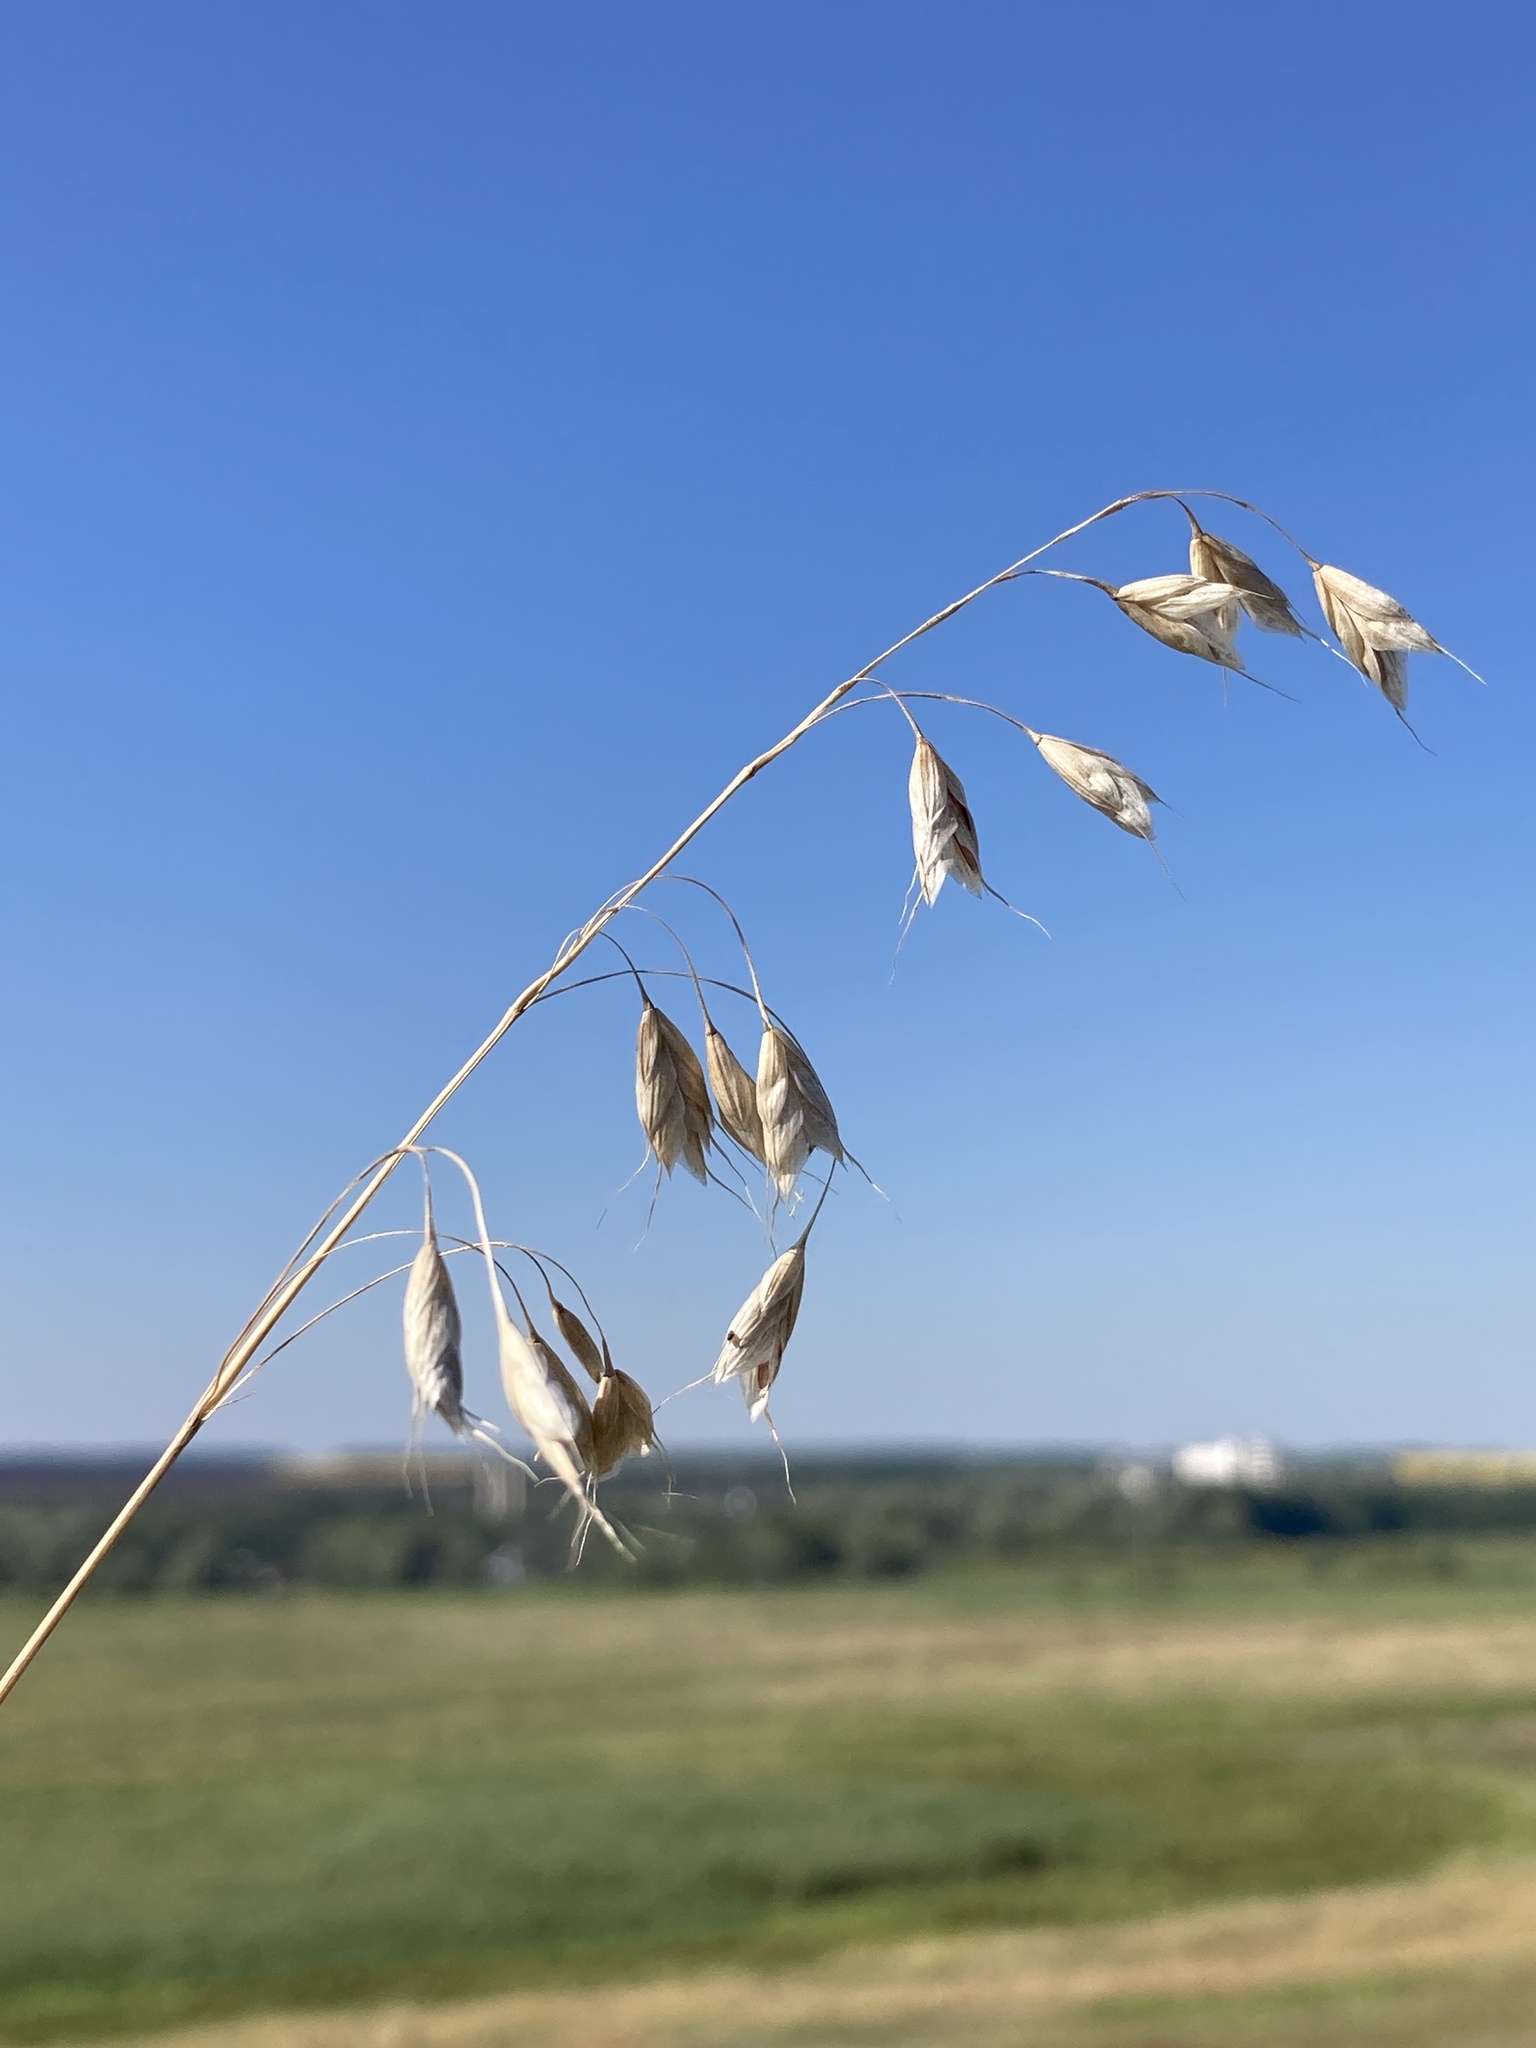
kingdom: Plantae
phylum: Tracheophyta
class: Liliopsida
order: Poales
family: Poaceae
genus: Bromus
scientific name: Bromus squarrosus
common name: Corn brome
